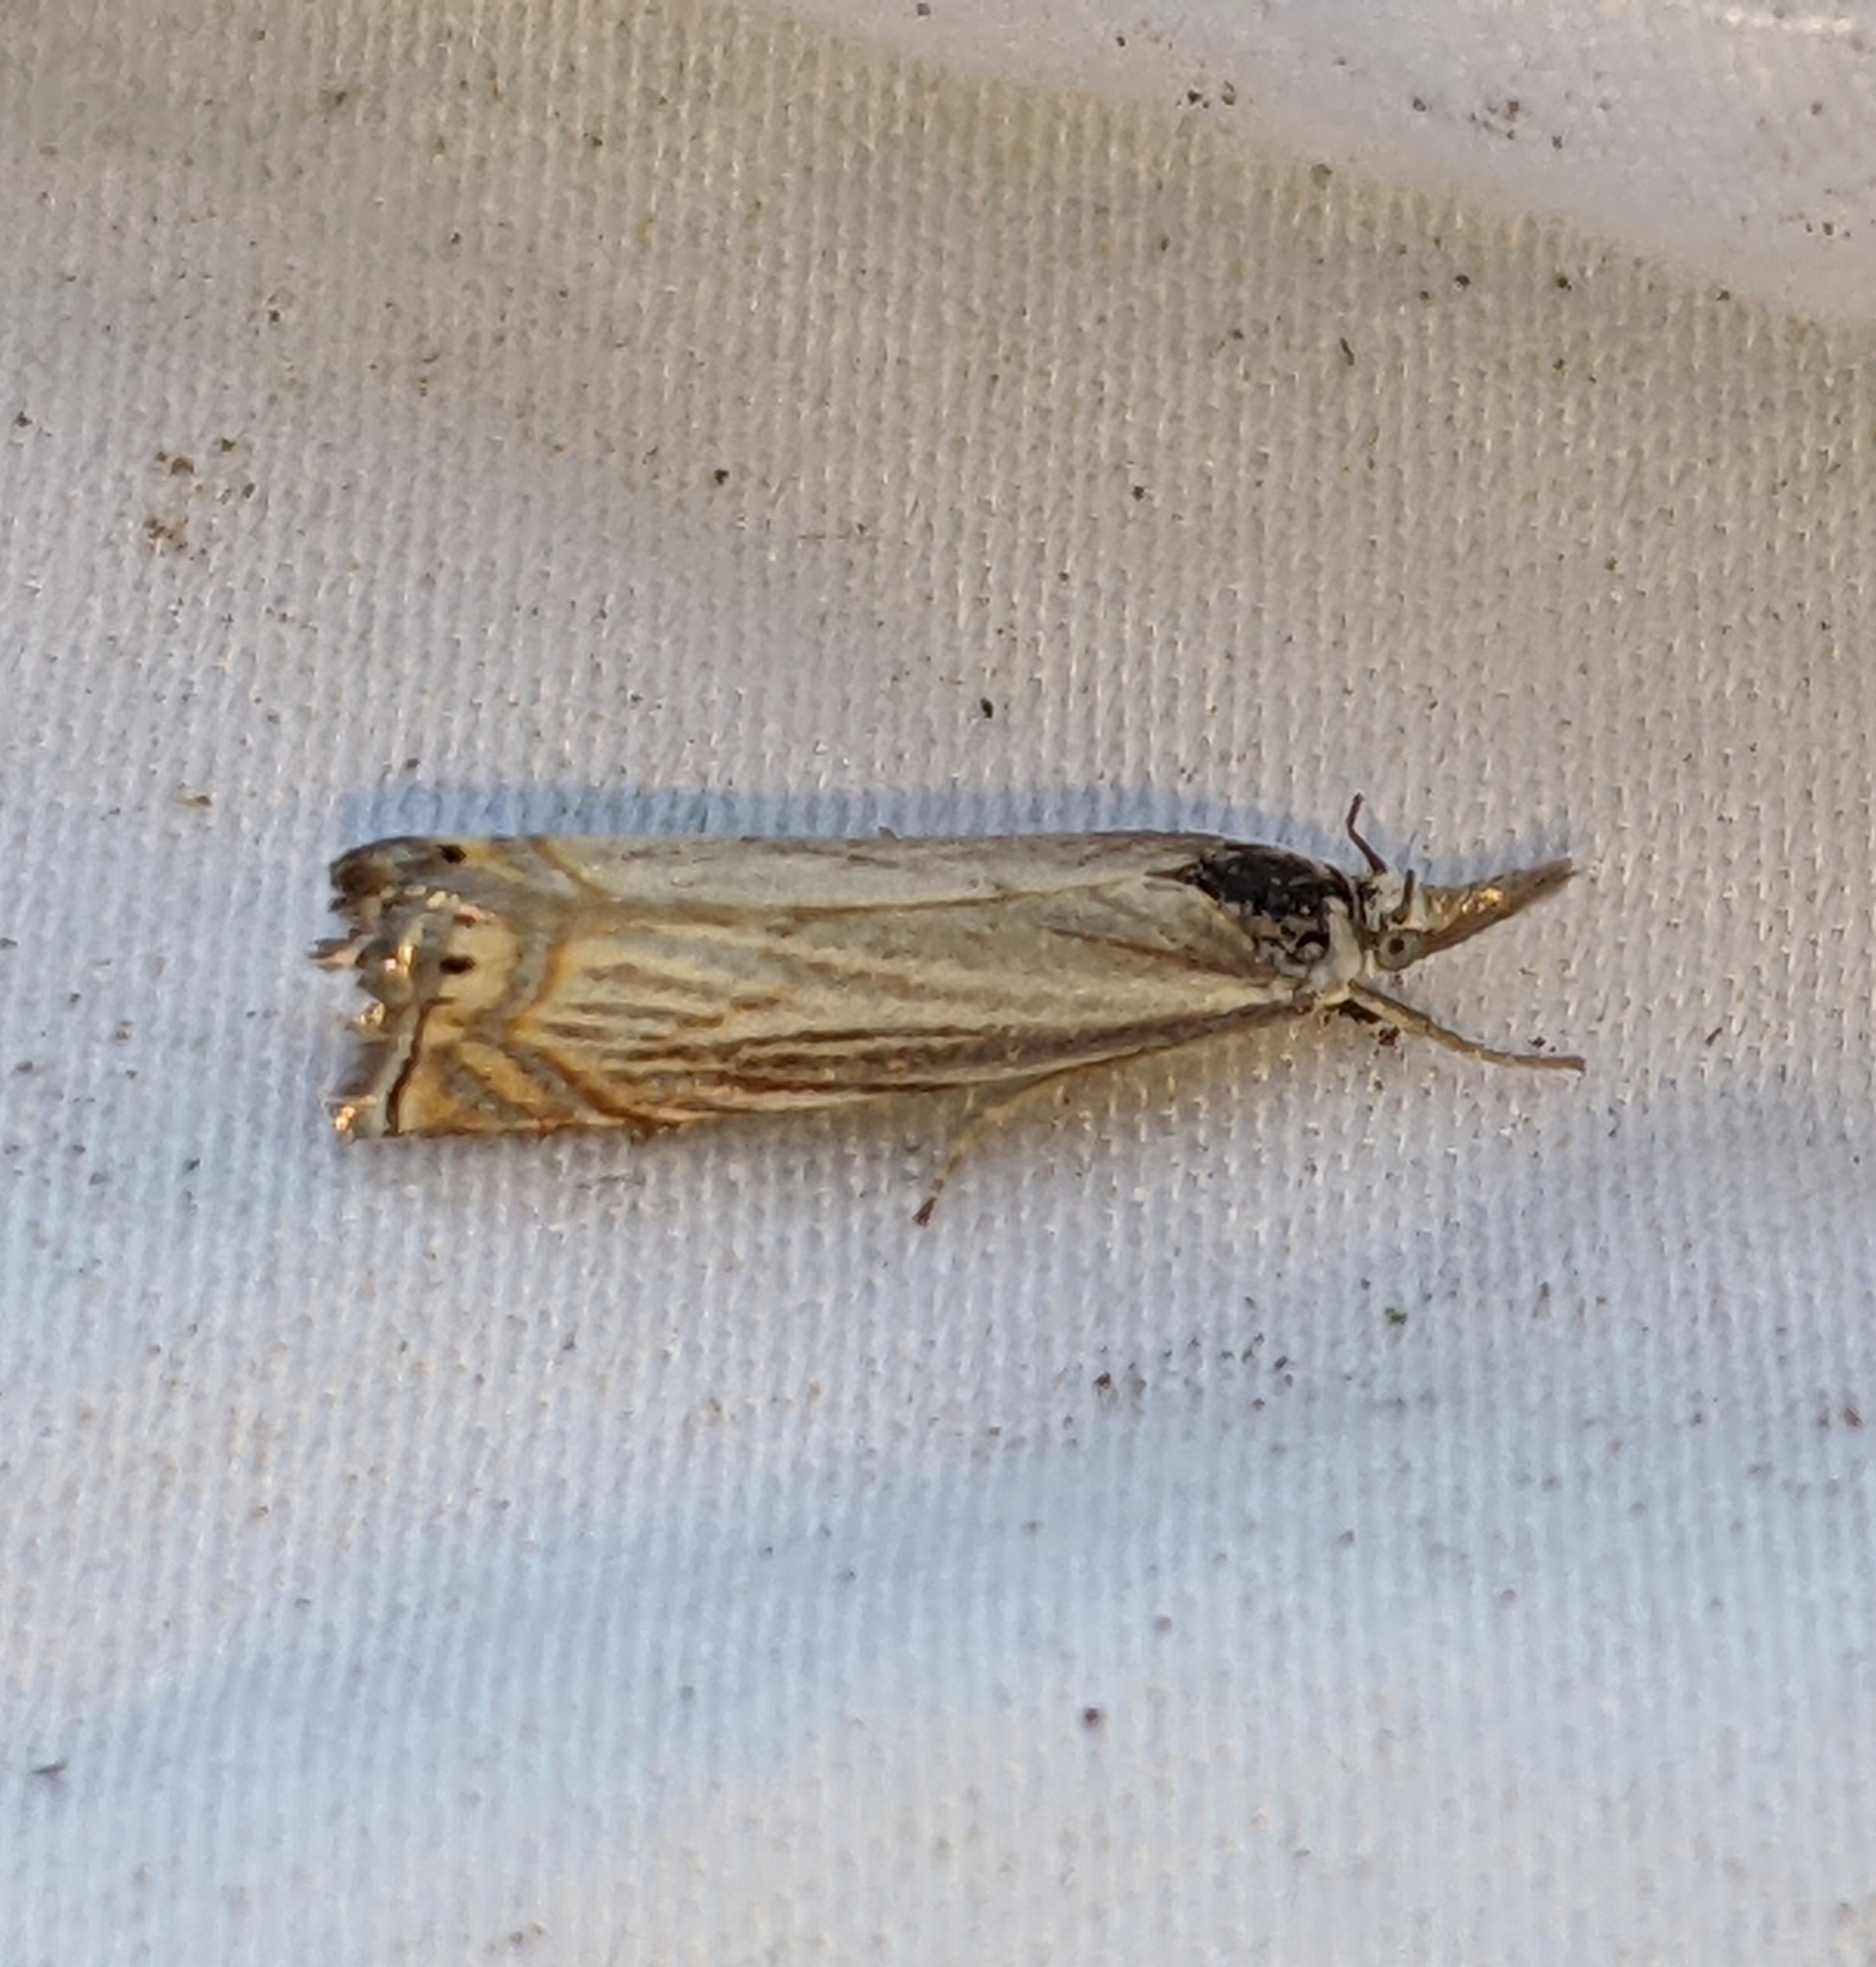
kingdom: Animalia
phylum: Arthropoda
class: Insecta
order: Lepidoptera
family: Crambidae
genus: Chrysoteuchia
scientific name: Chrysoteuchia topiarius
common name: Topiary grass-veneer
